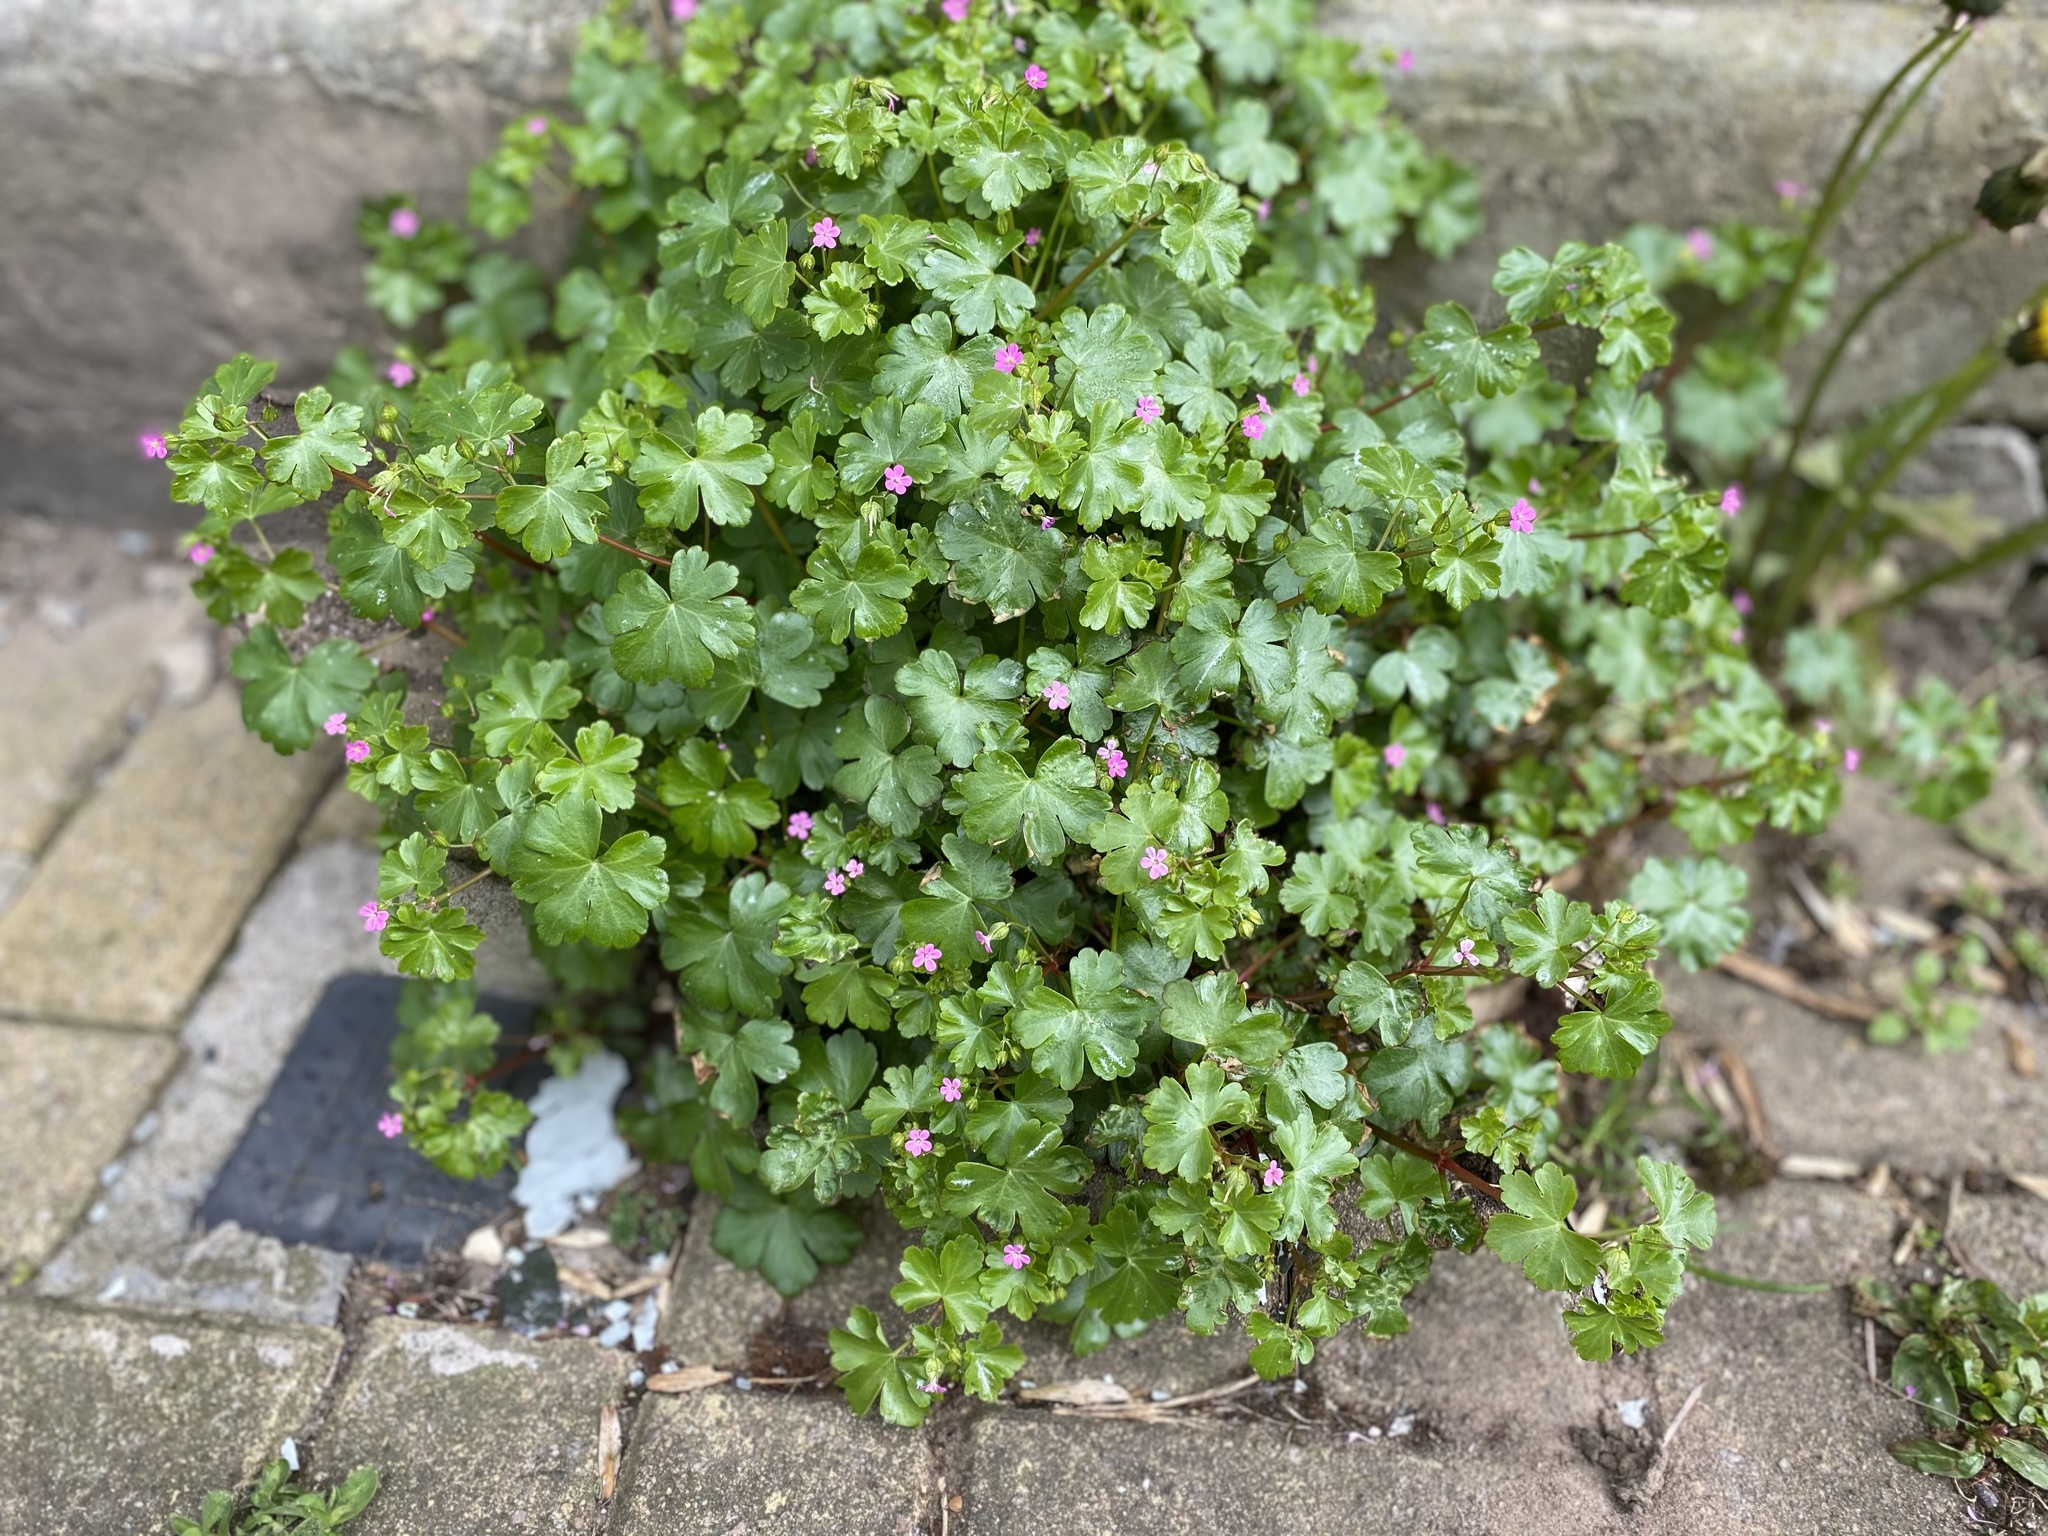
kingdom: Plantae
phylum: Tracheophyta
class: Magnoliopsida
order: Geraniales
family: Geraniaceae
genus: Geranium
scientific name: Geranium lucidum
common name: Shining crane's-bill
